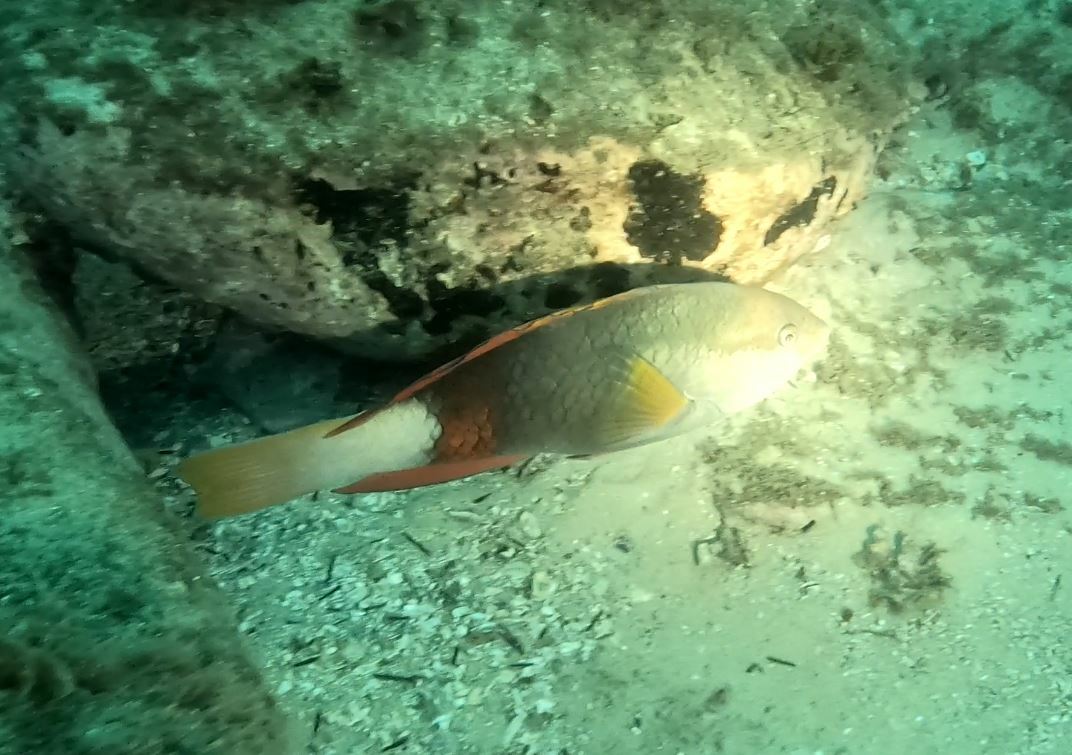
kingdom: Animalia
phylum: Chordata
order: Perciformes
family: Labridae
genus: Notolabrus
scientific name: Notolabrus gymnogenis
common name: Crimson banded wrasse
